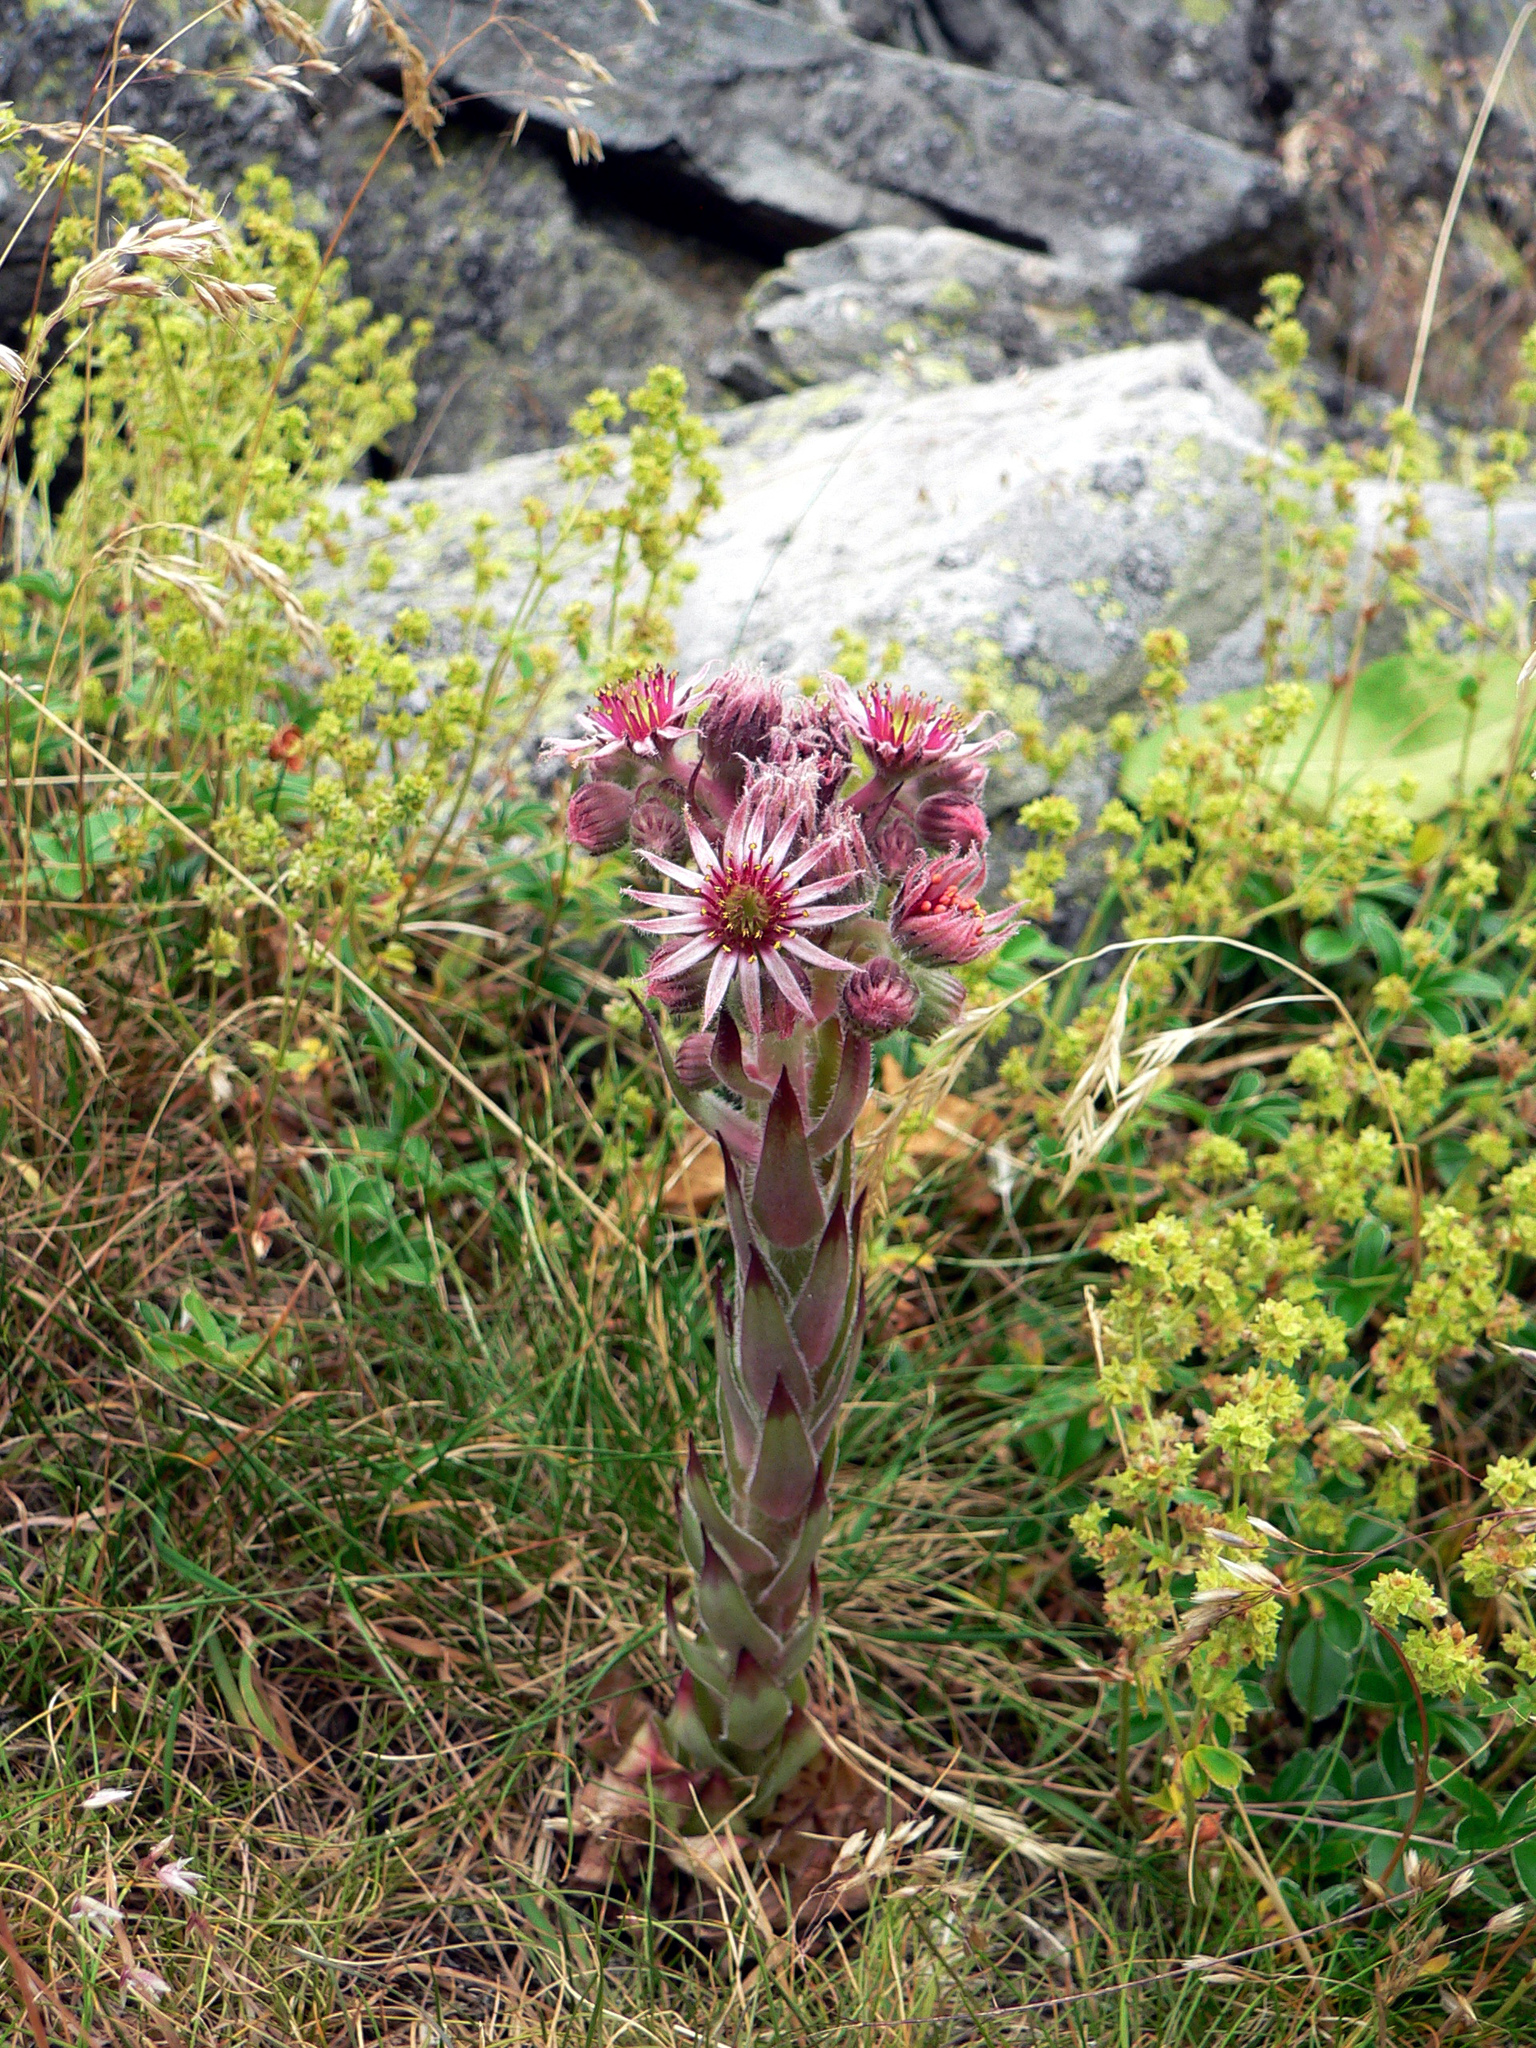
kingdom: Plantae
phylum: Tracheophyta
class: Magnoliopsida
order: Saxifragales
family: Crassulaceae
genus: Sempervivum
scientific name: Sempervivum tectorum
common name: House-leek
